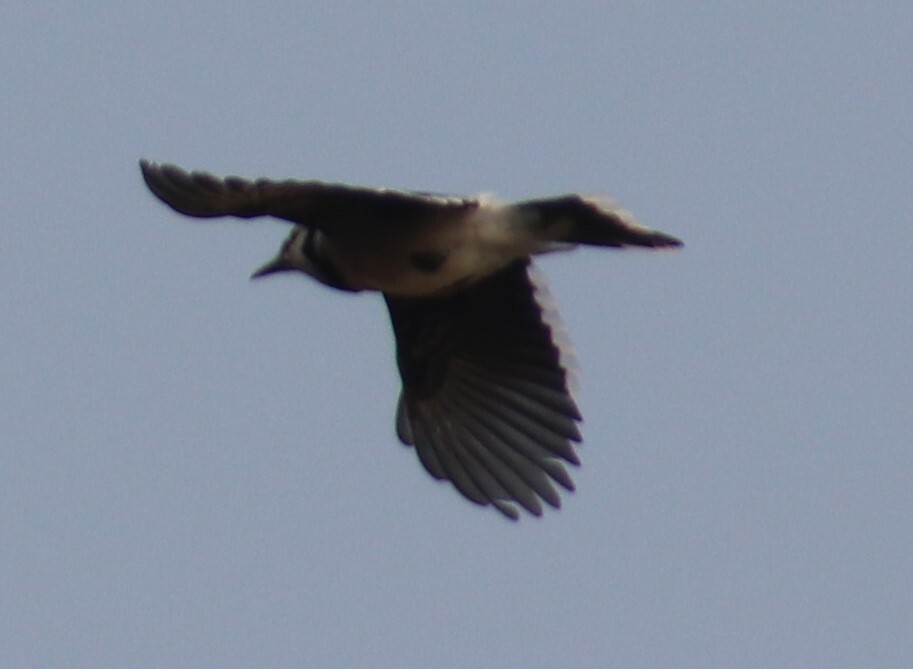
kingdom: Animalia
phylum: Chordata
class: Aves
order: Passeriformes
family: Corvidae
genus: Cyanocitta
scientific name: Cyanocitta cristata
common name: Blue jay
